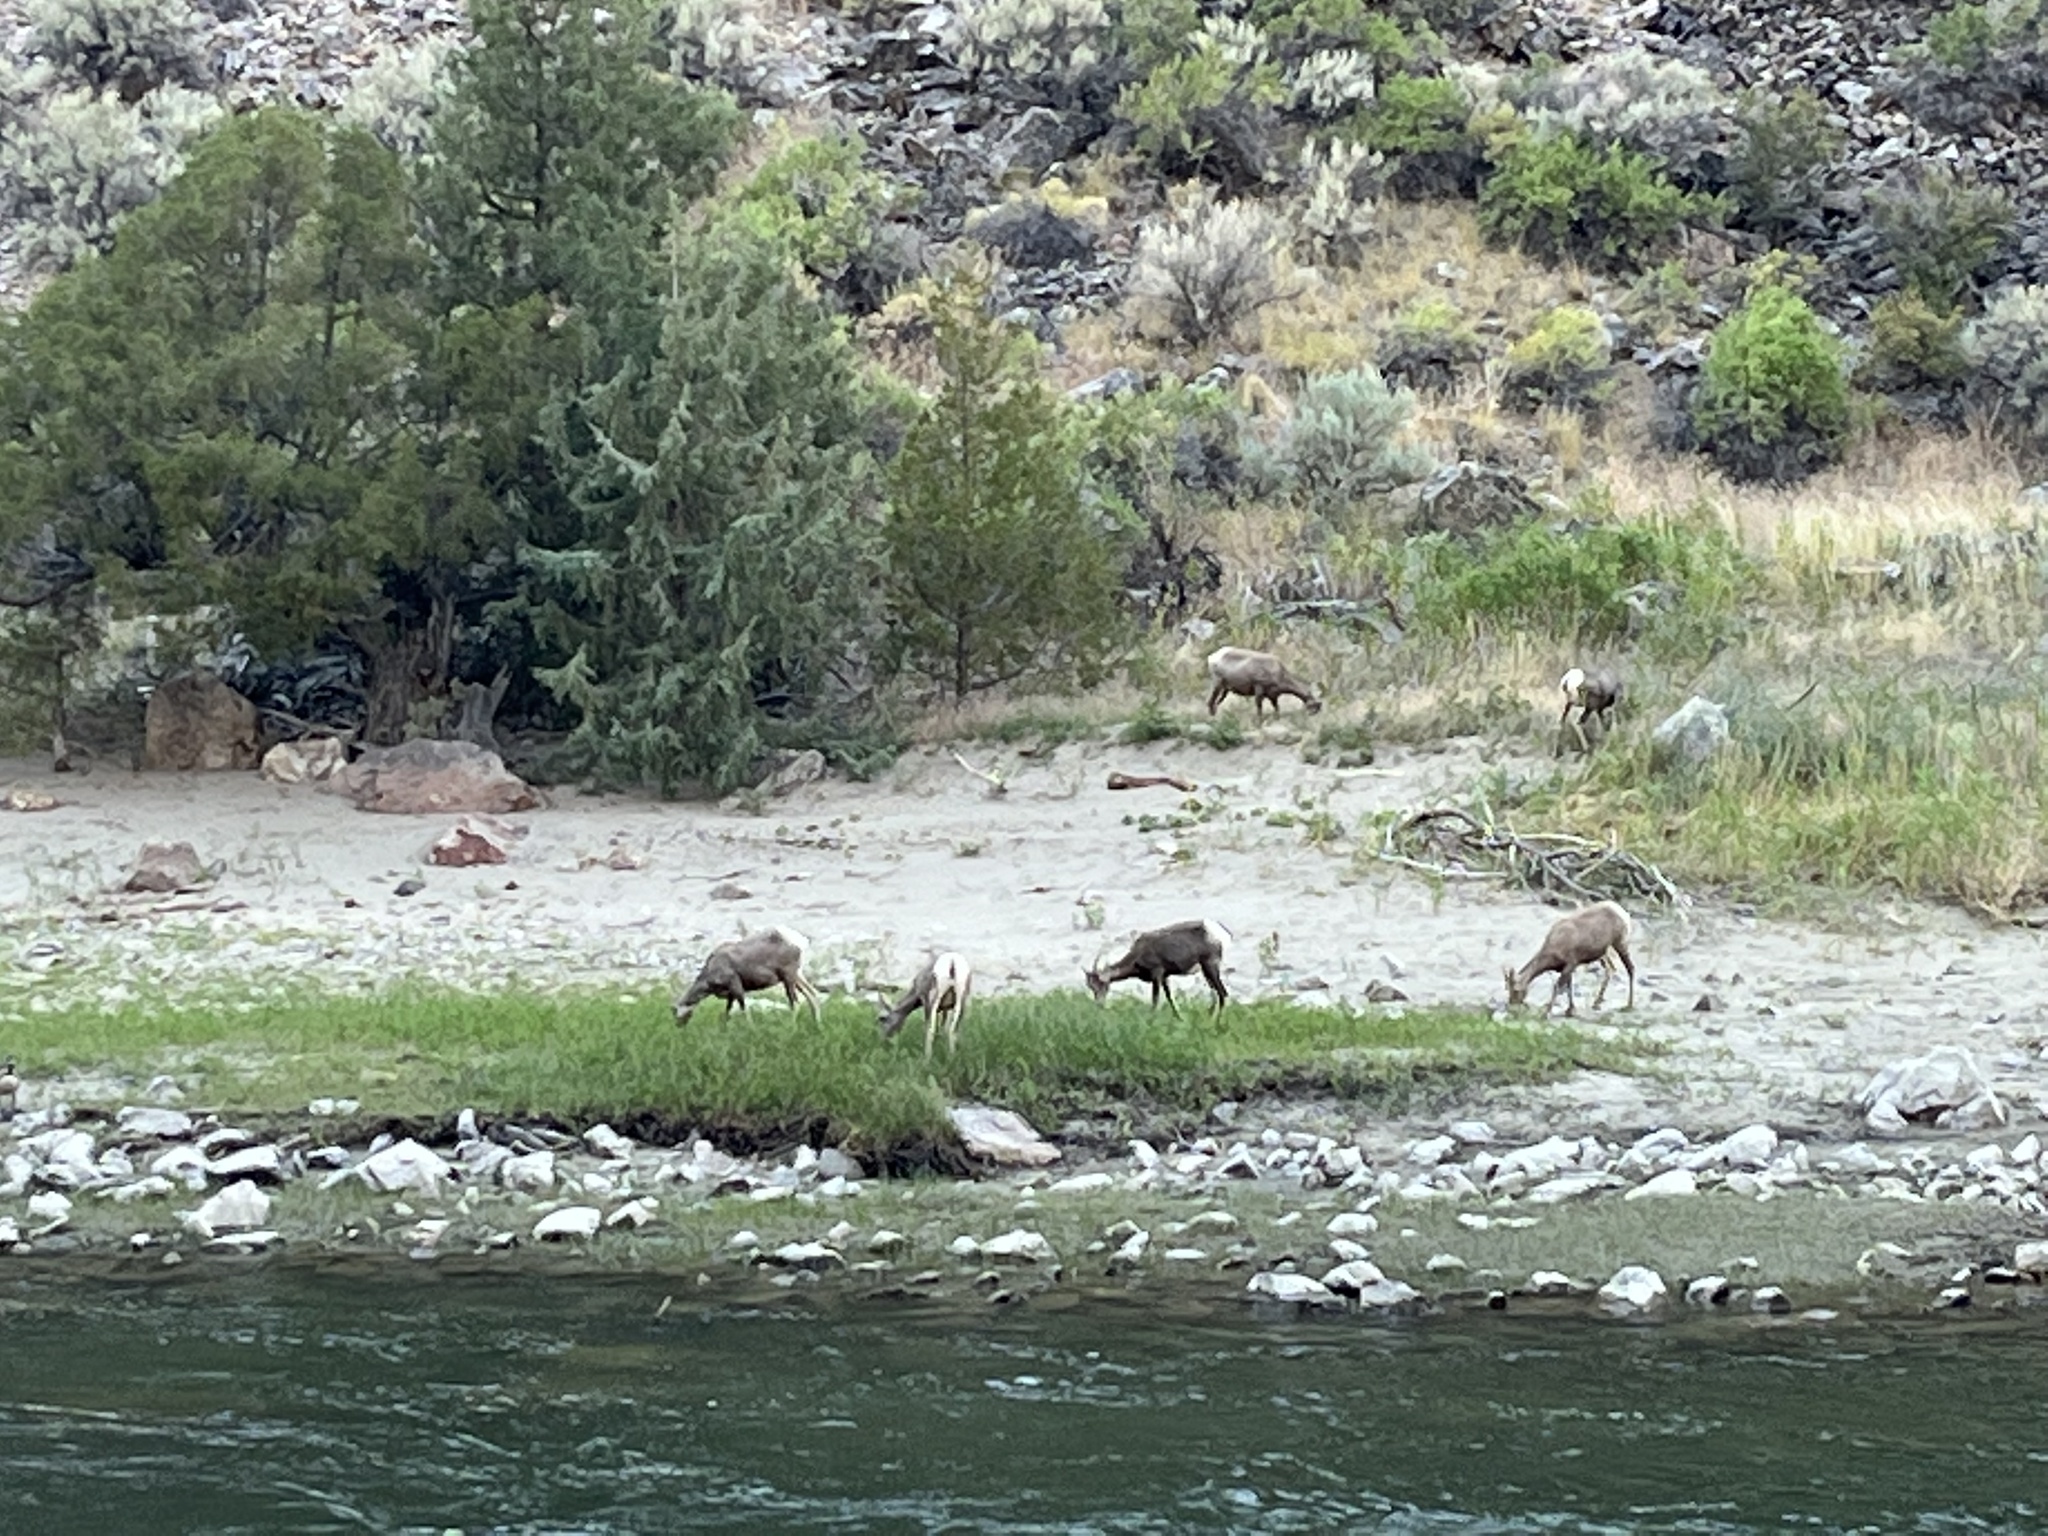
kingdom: Animalia
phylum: Chordata
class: Mammalia
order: Artiodactyla
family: Bovidae
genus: Ovis
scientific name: Ovis canadensis
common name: Bighorn sheep
